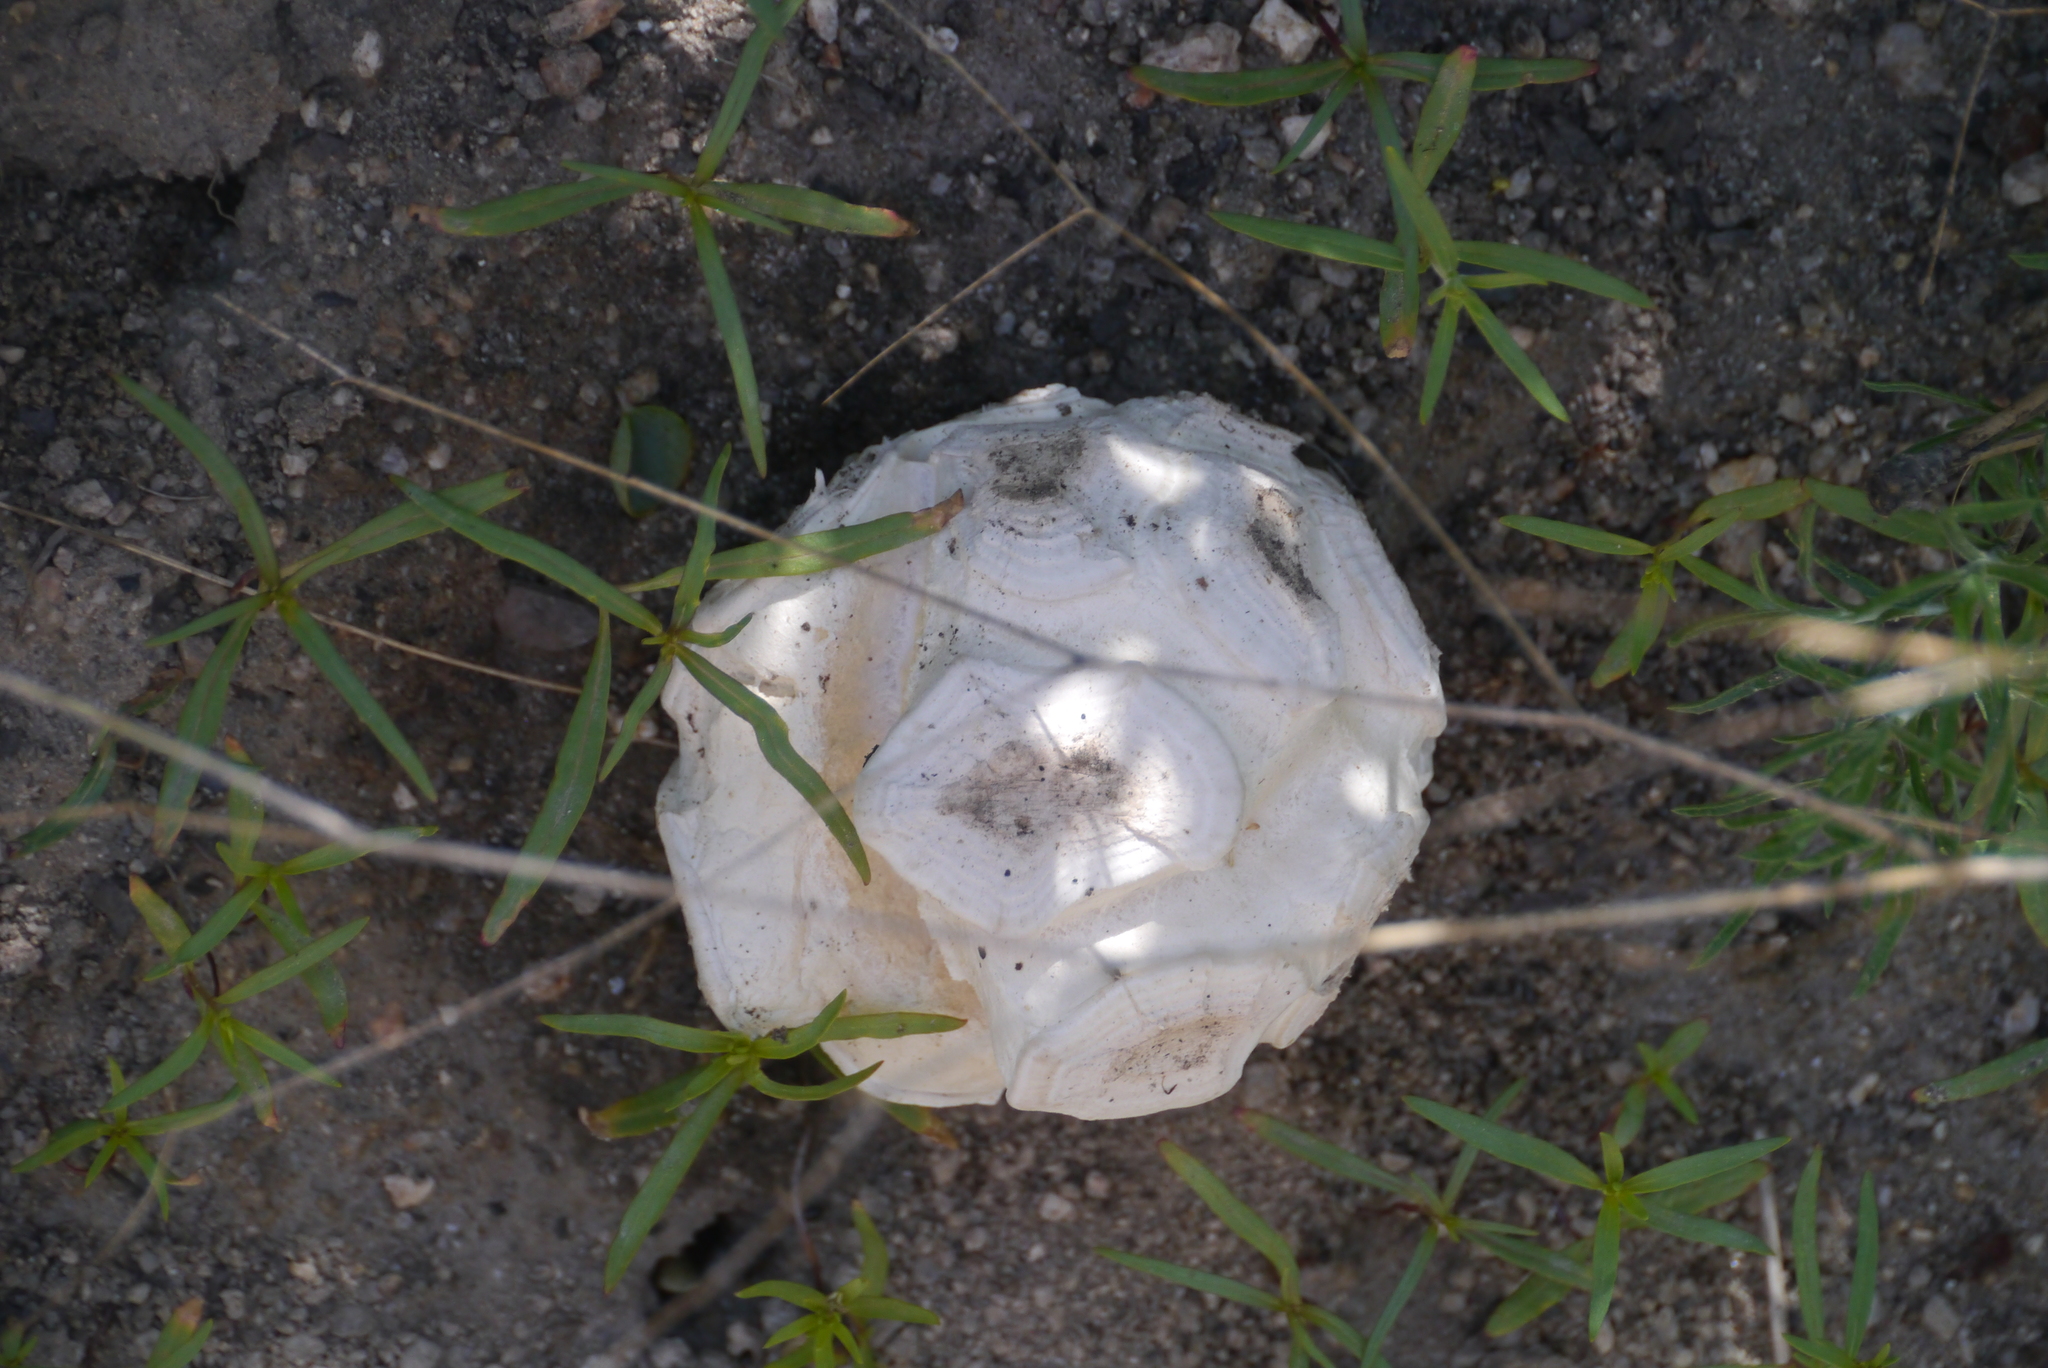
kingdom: Fungi
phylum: Basidiomycota
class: Agaricomycetes
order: Agaricales
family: Lycoperdaceae
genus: Calbovista
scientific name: Calbovista subsculpta
